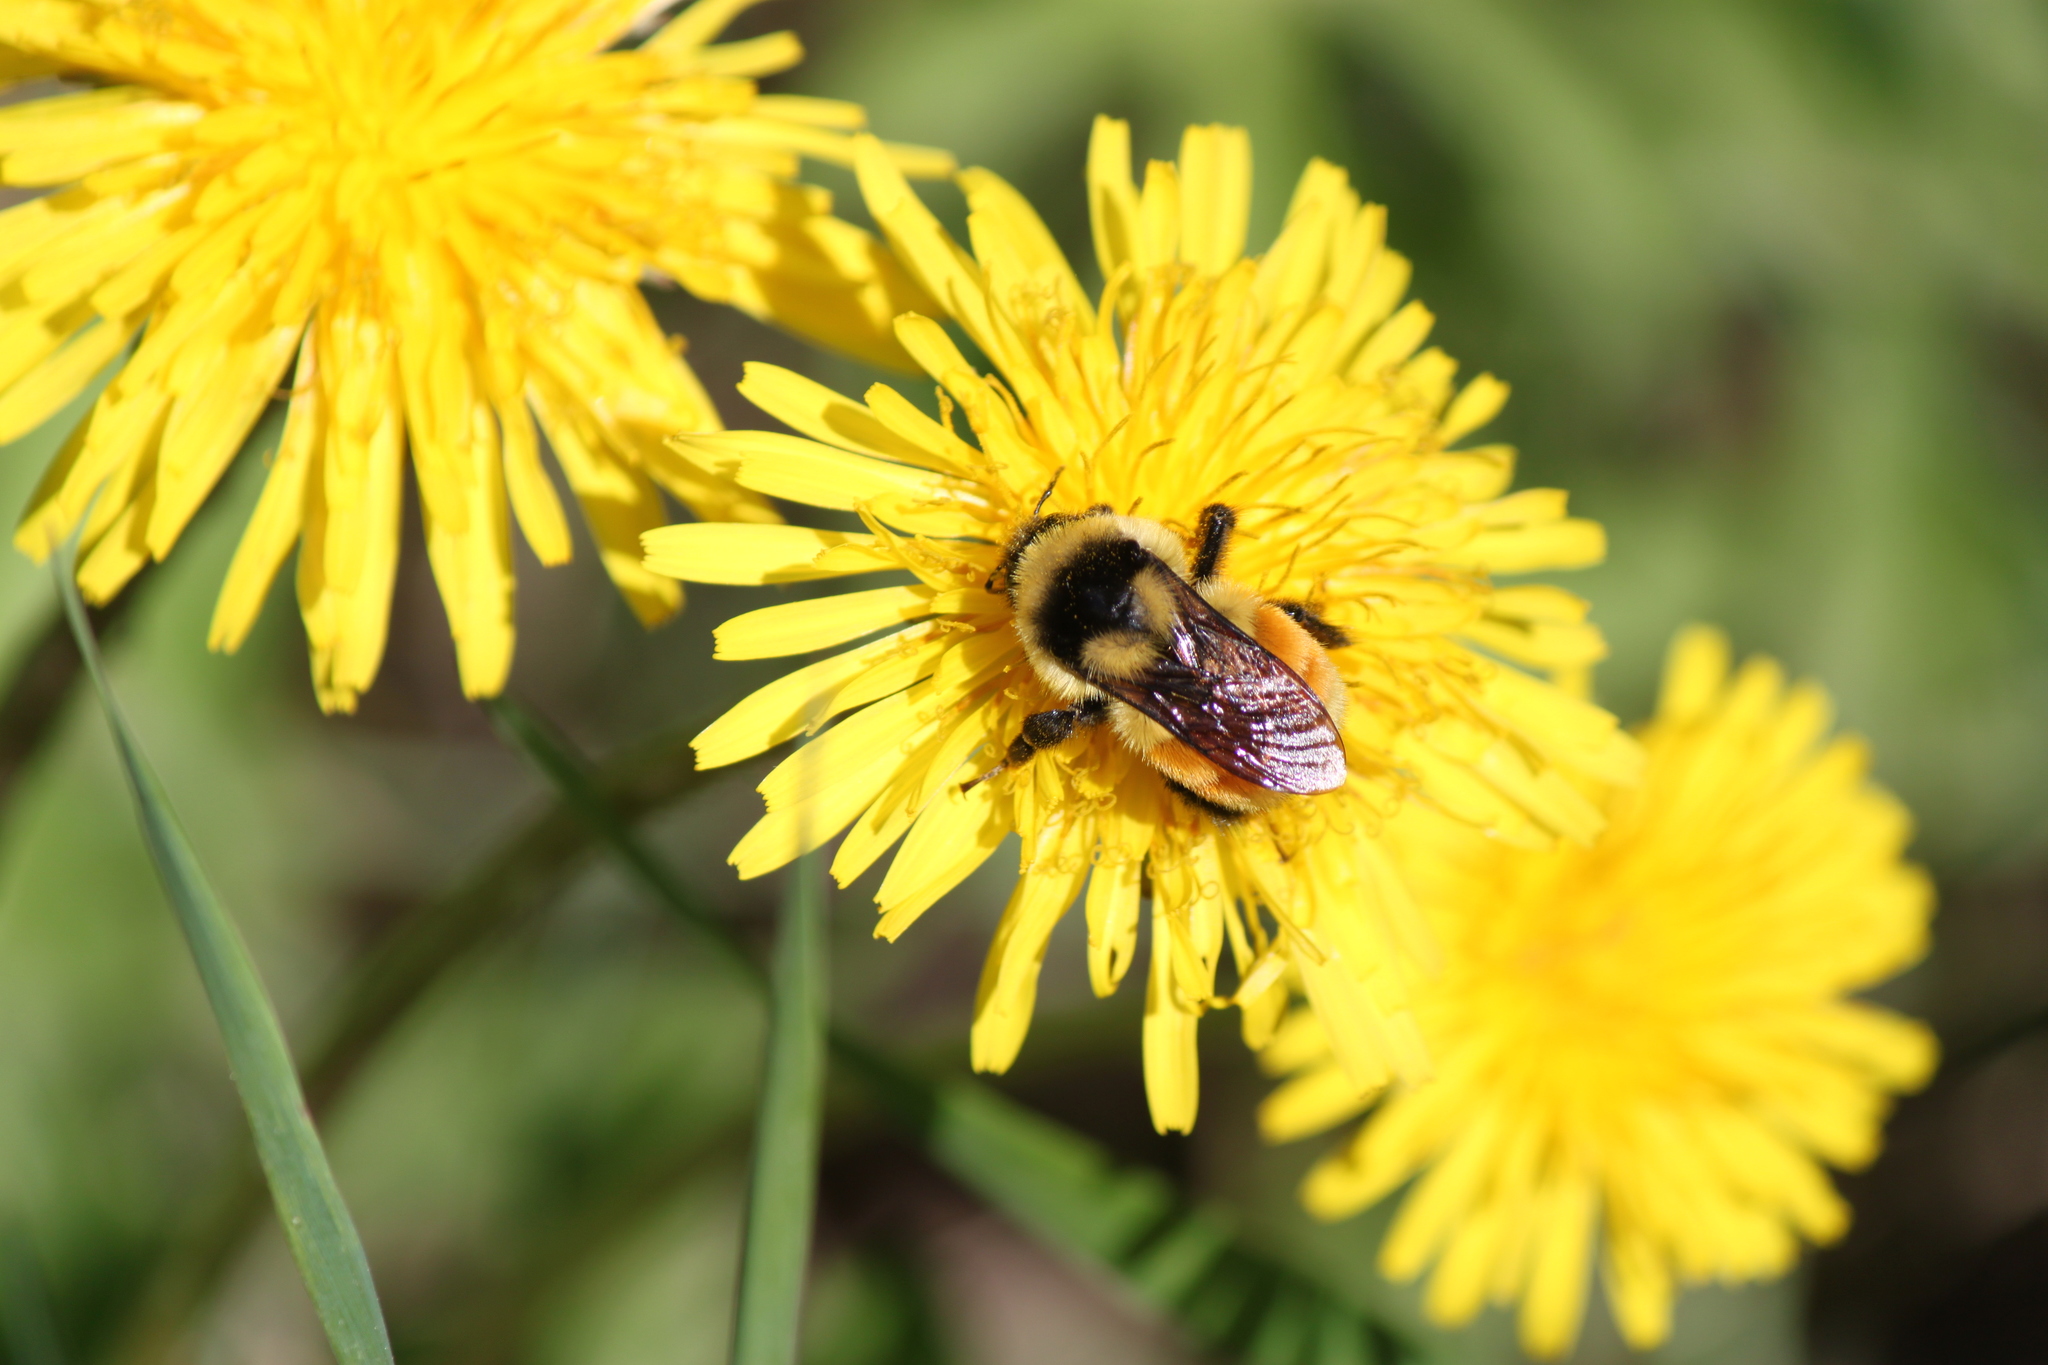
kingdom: Animalia
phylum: Arthropoda
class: Insecta
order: Hymenoptera
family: Apidae
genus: Bombus
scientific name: Bombus ternarius
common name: Tri-colored bumble bee
